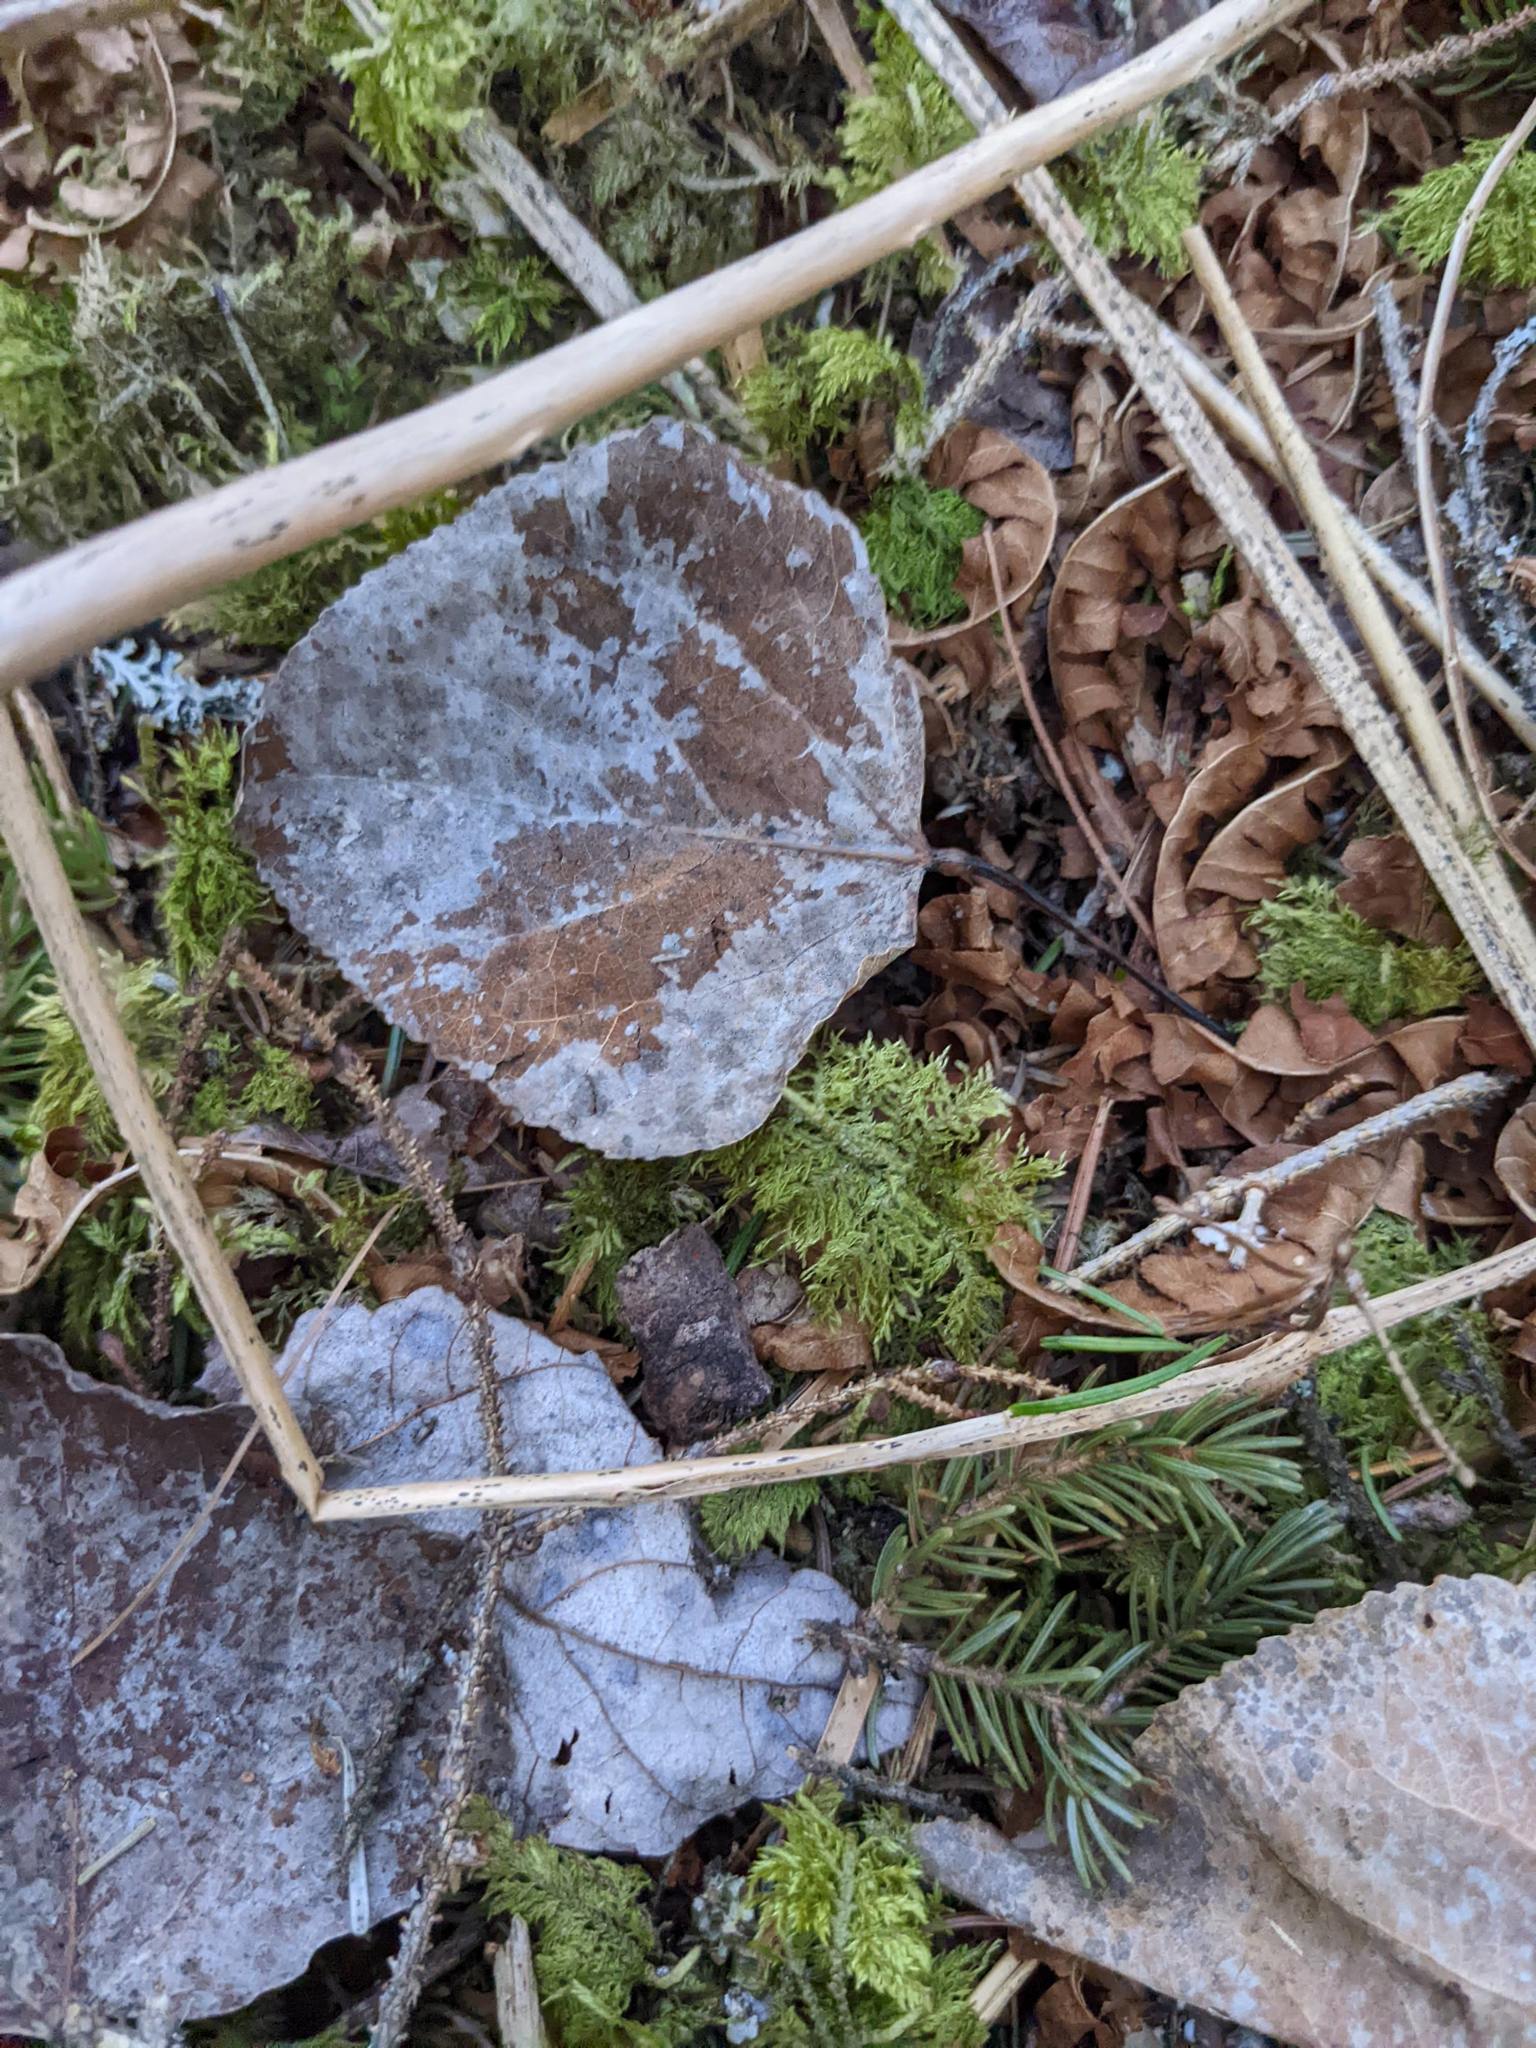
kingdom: Plantae
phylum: Tracheophyta
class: Magnoliopsida
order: Malpighiales
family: Salicaceae
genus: Populus
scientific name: Populus tremuloides
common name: Quaking aspen
